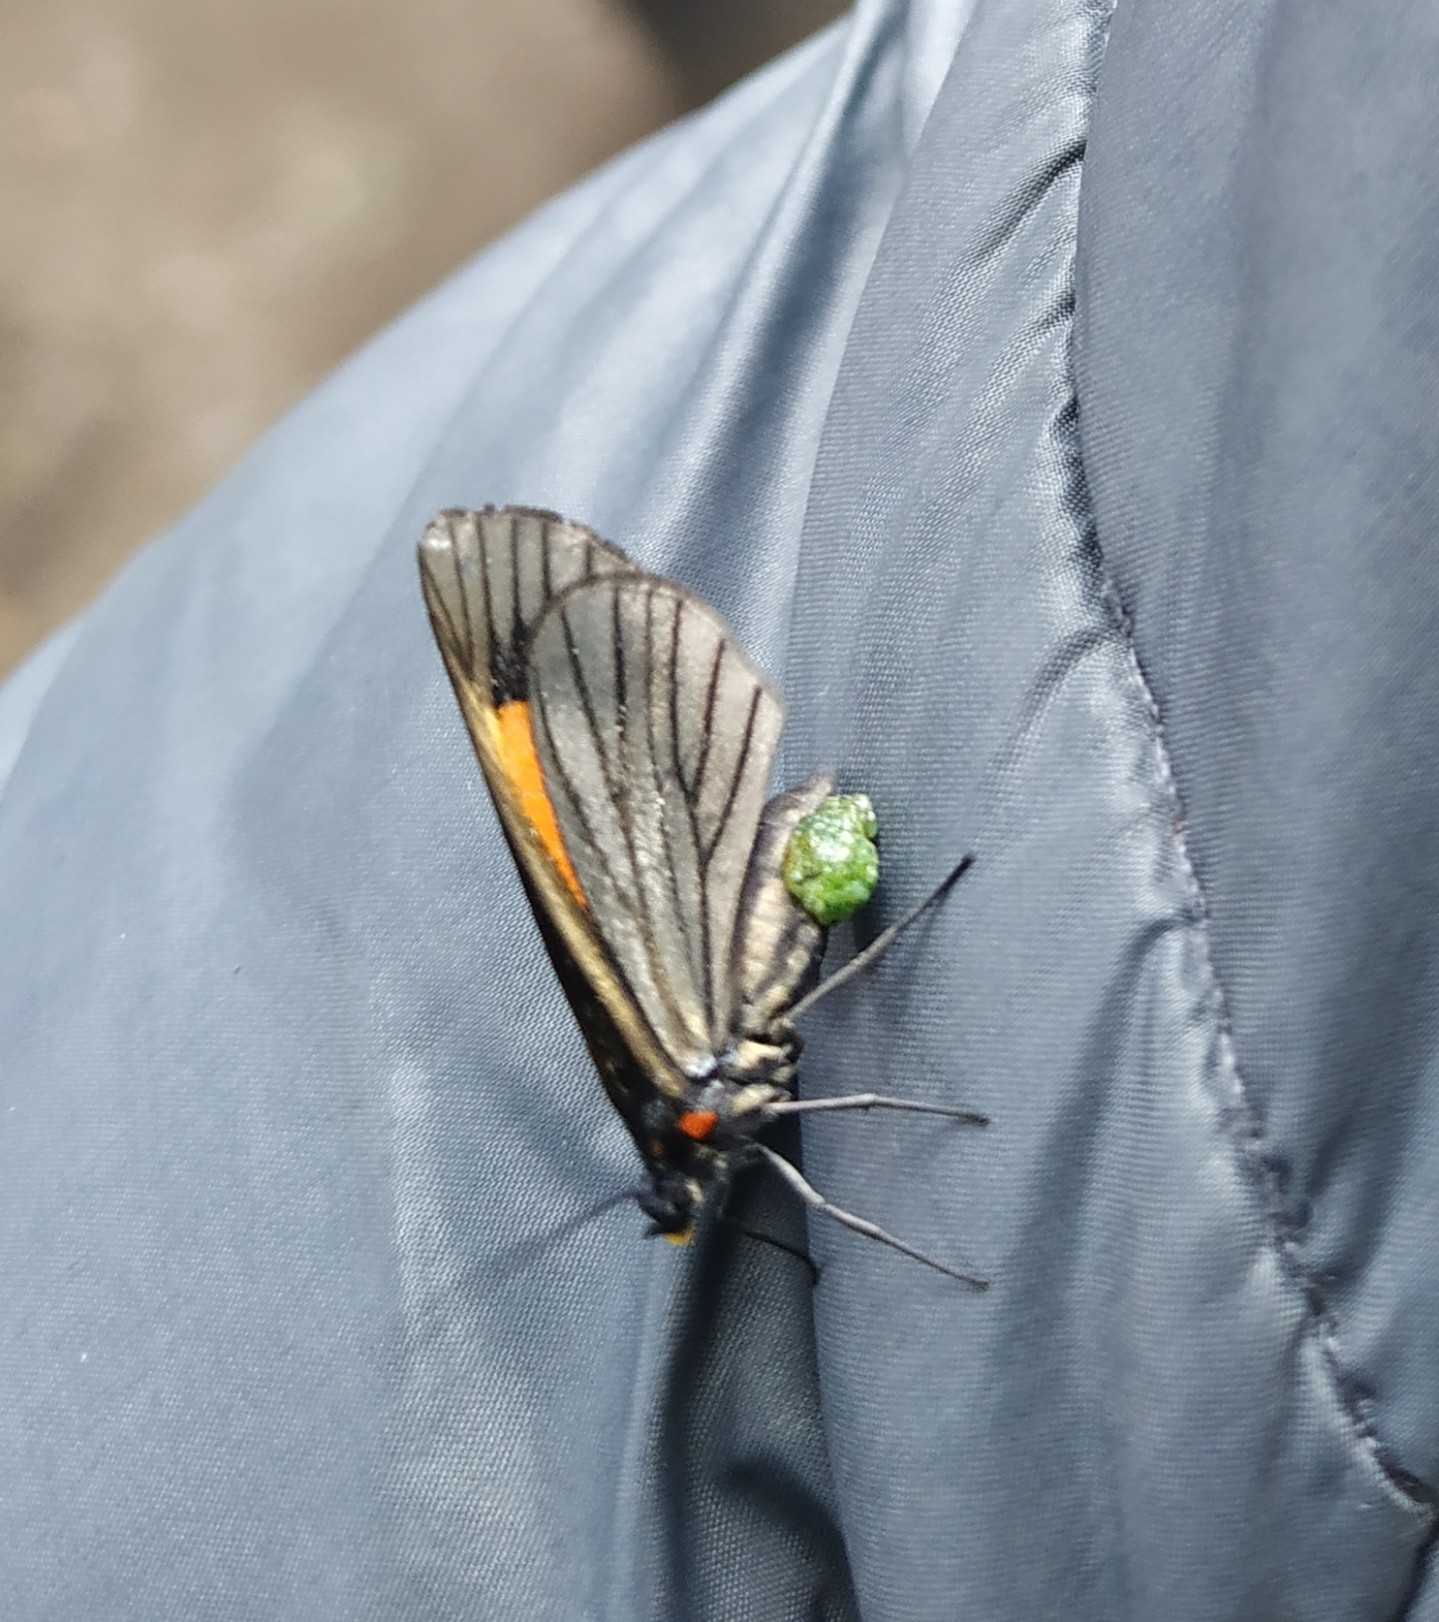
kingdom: Animalia
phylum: Arthropoda
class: Insecta
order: Lepidoptera
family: Geometridae
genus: Sangalopsis
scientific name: Sangalopsis ficifera
